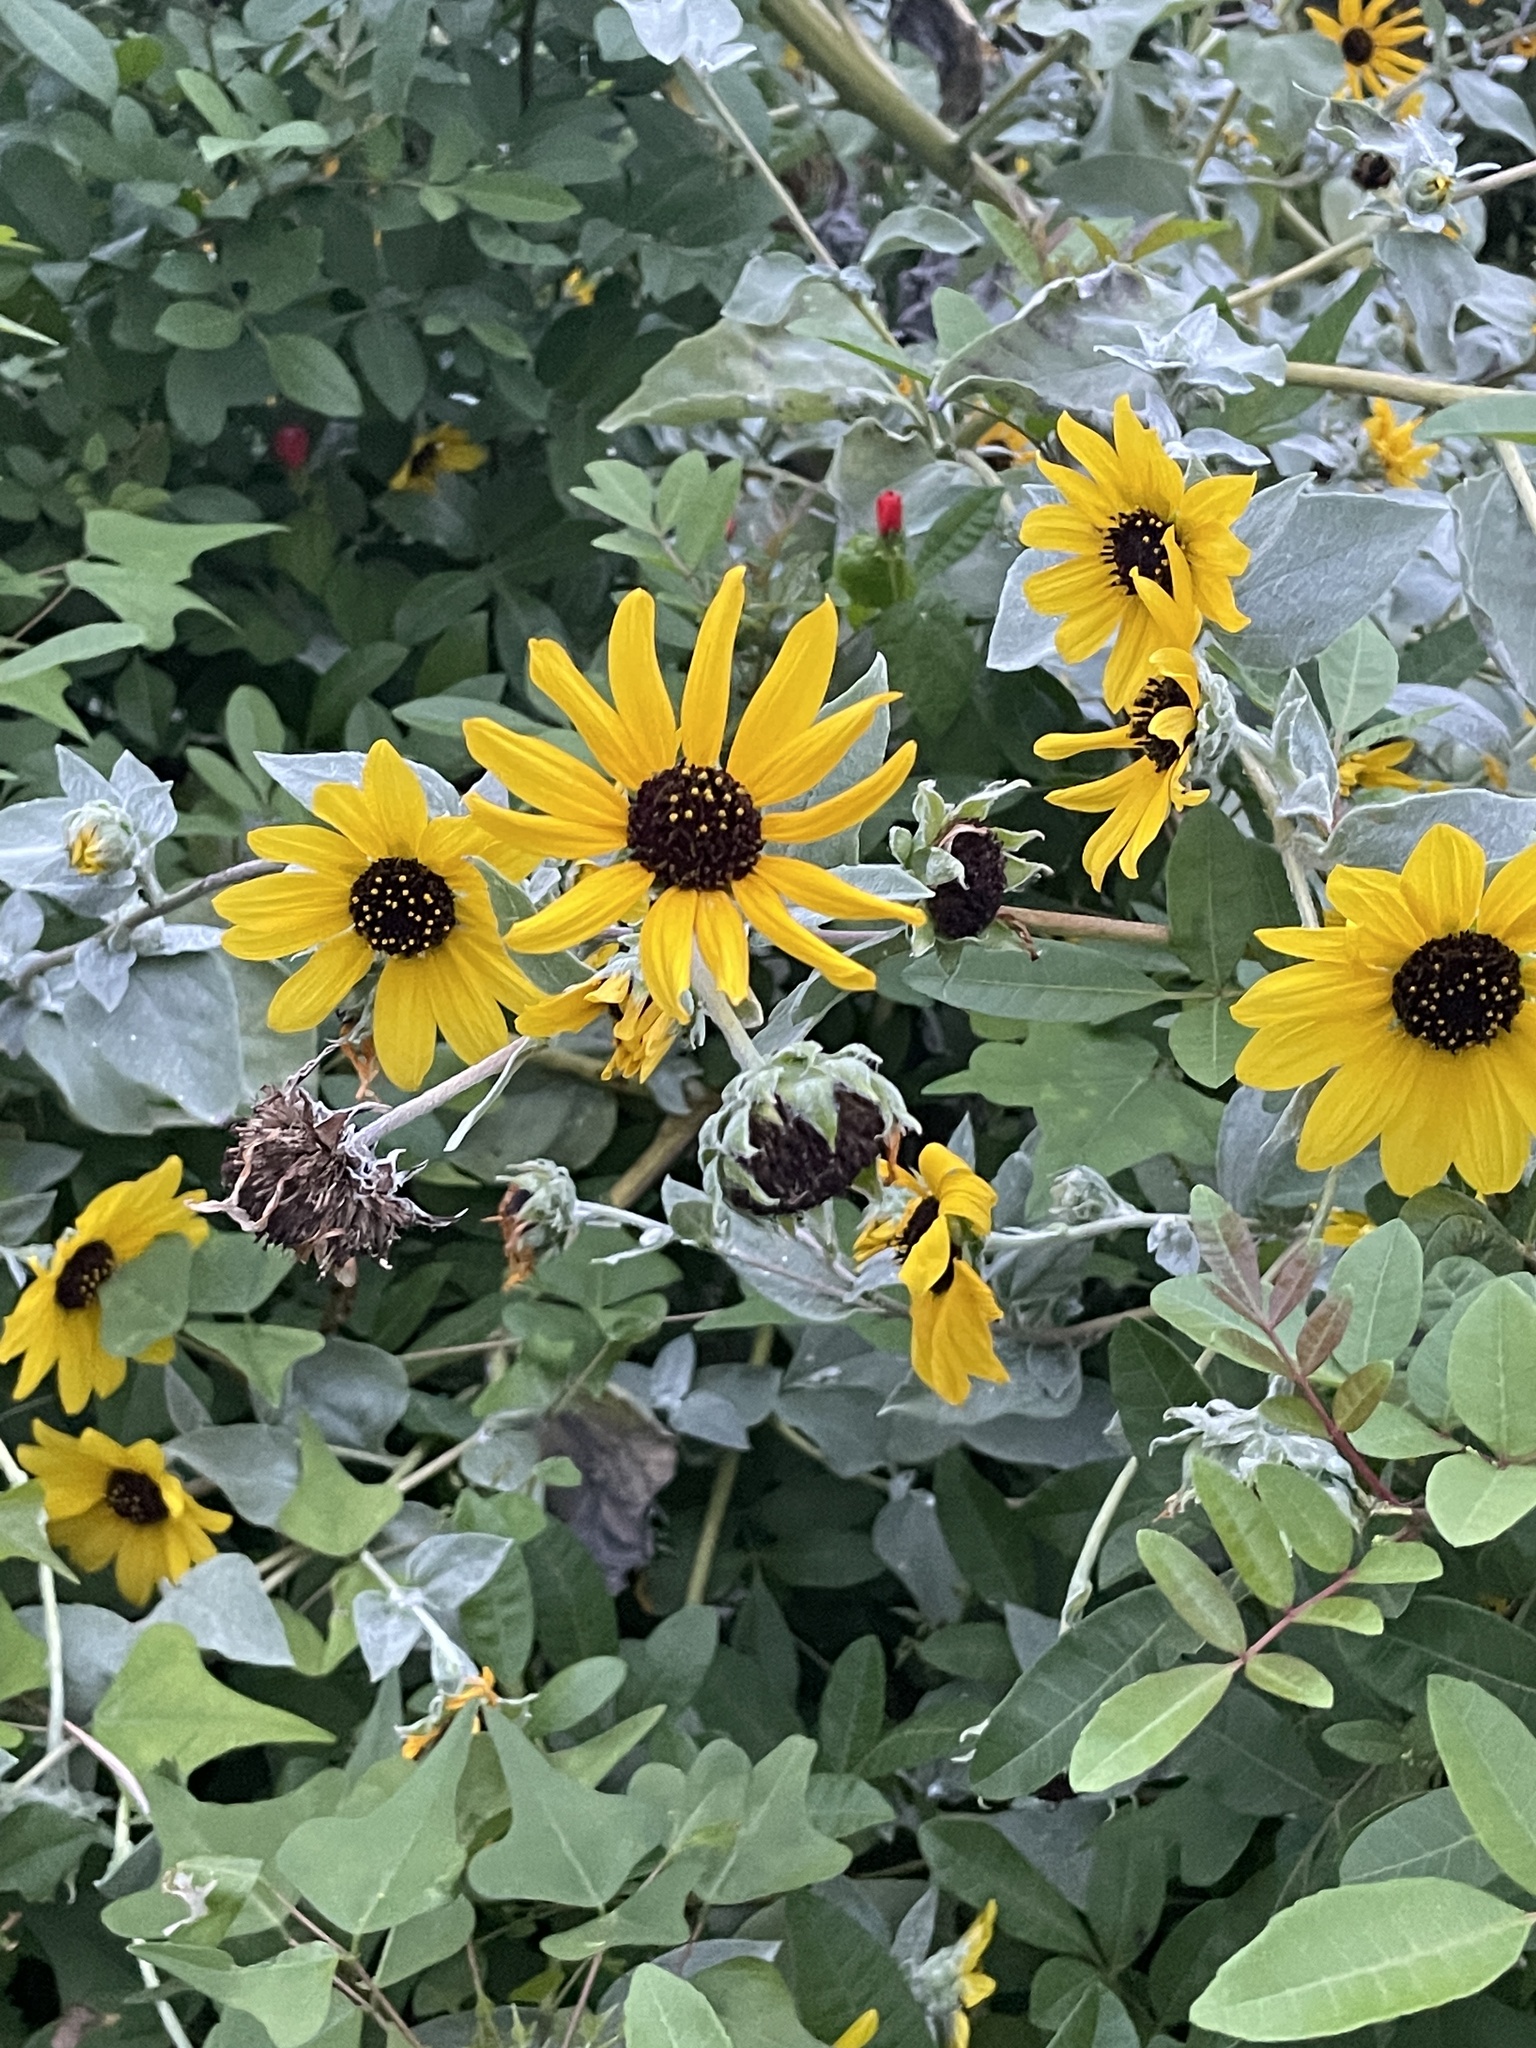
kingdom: Plantae
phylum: Tracheophyta
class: Magnoliopsida
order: Asterales
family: Asteraceae
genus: Helianthus
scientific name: Helianthus argophyllus
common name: Silverleaf sunflower
